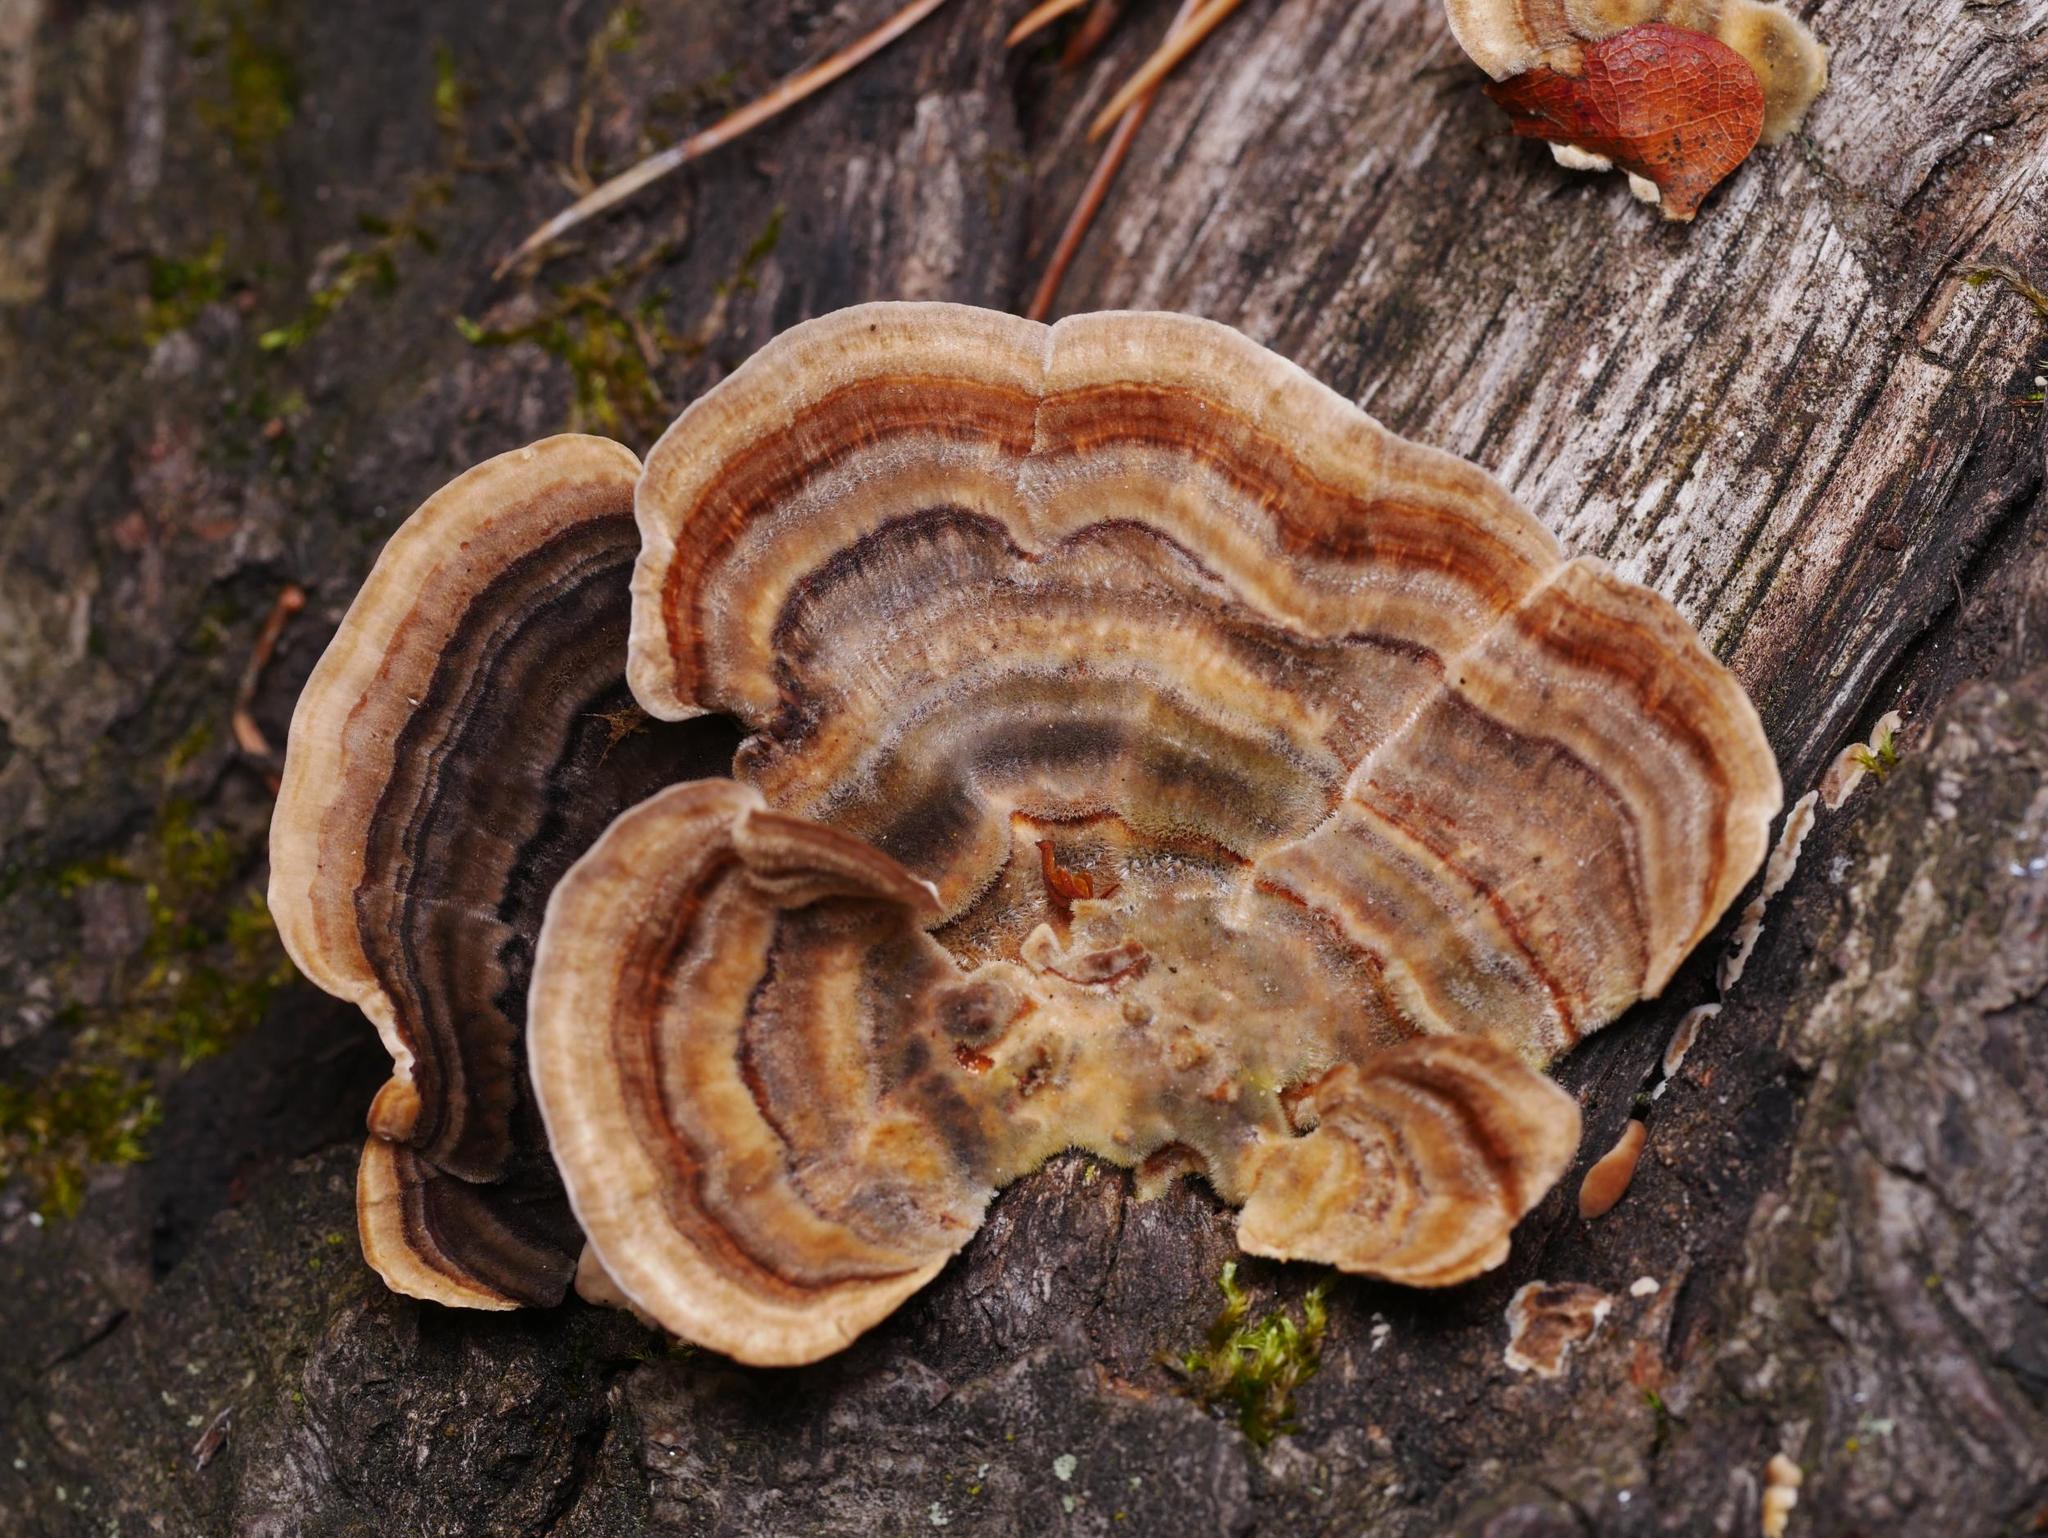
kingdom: Fungi
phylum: Basidiomycota
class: Agaricomycetes
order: Polyporales
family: Polyporaceae
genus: Trametes
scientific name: Trametes versicolor
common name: Turkeytail
